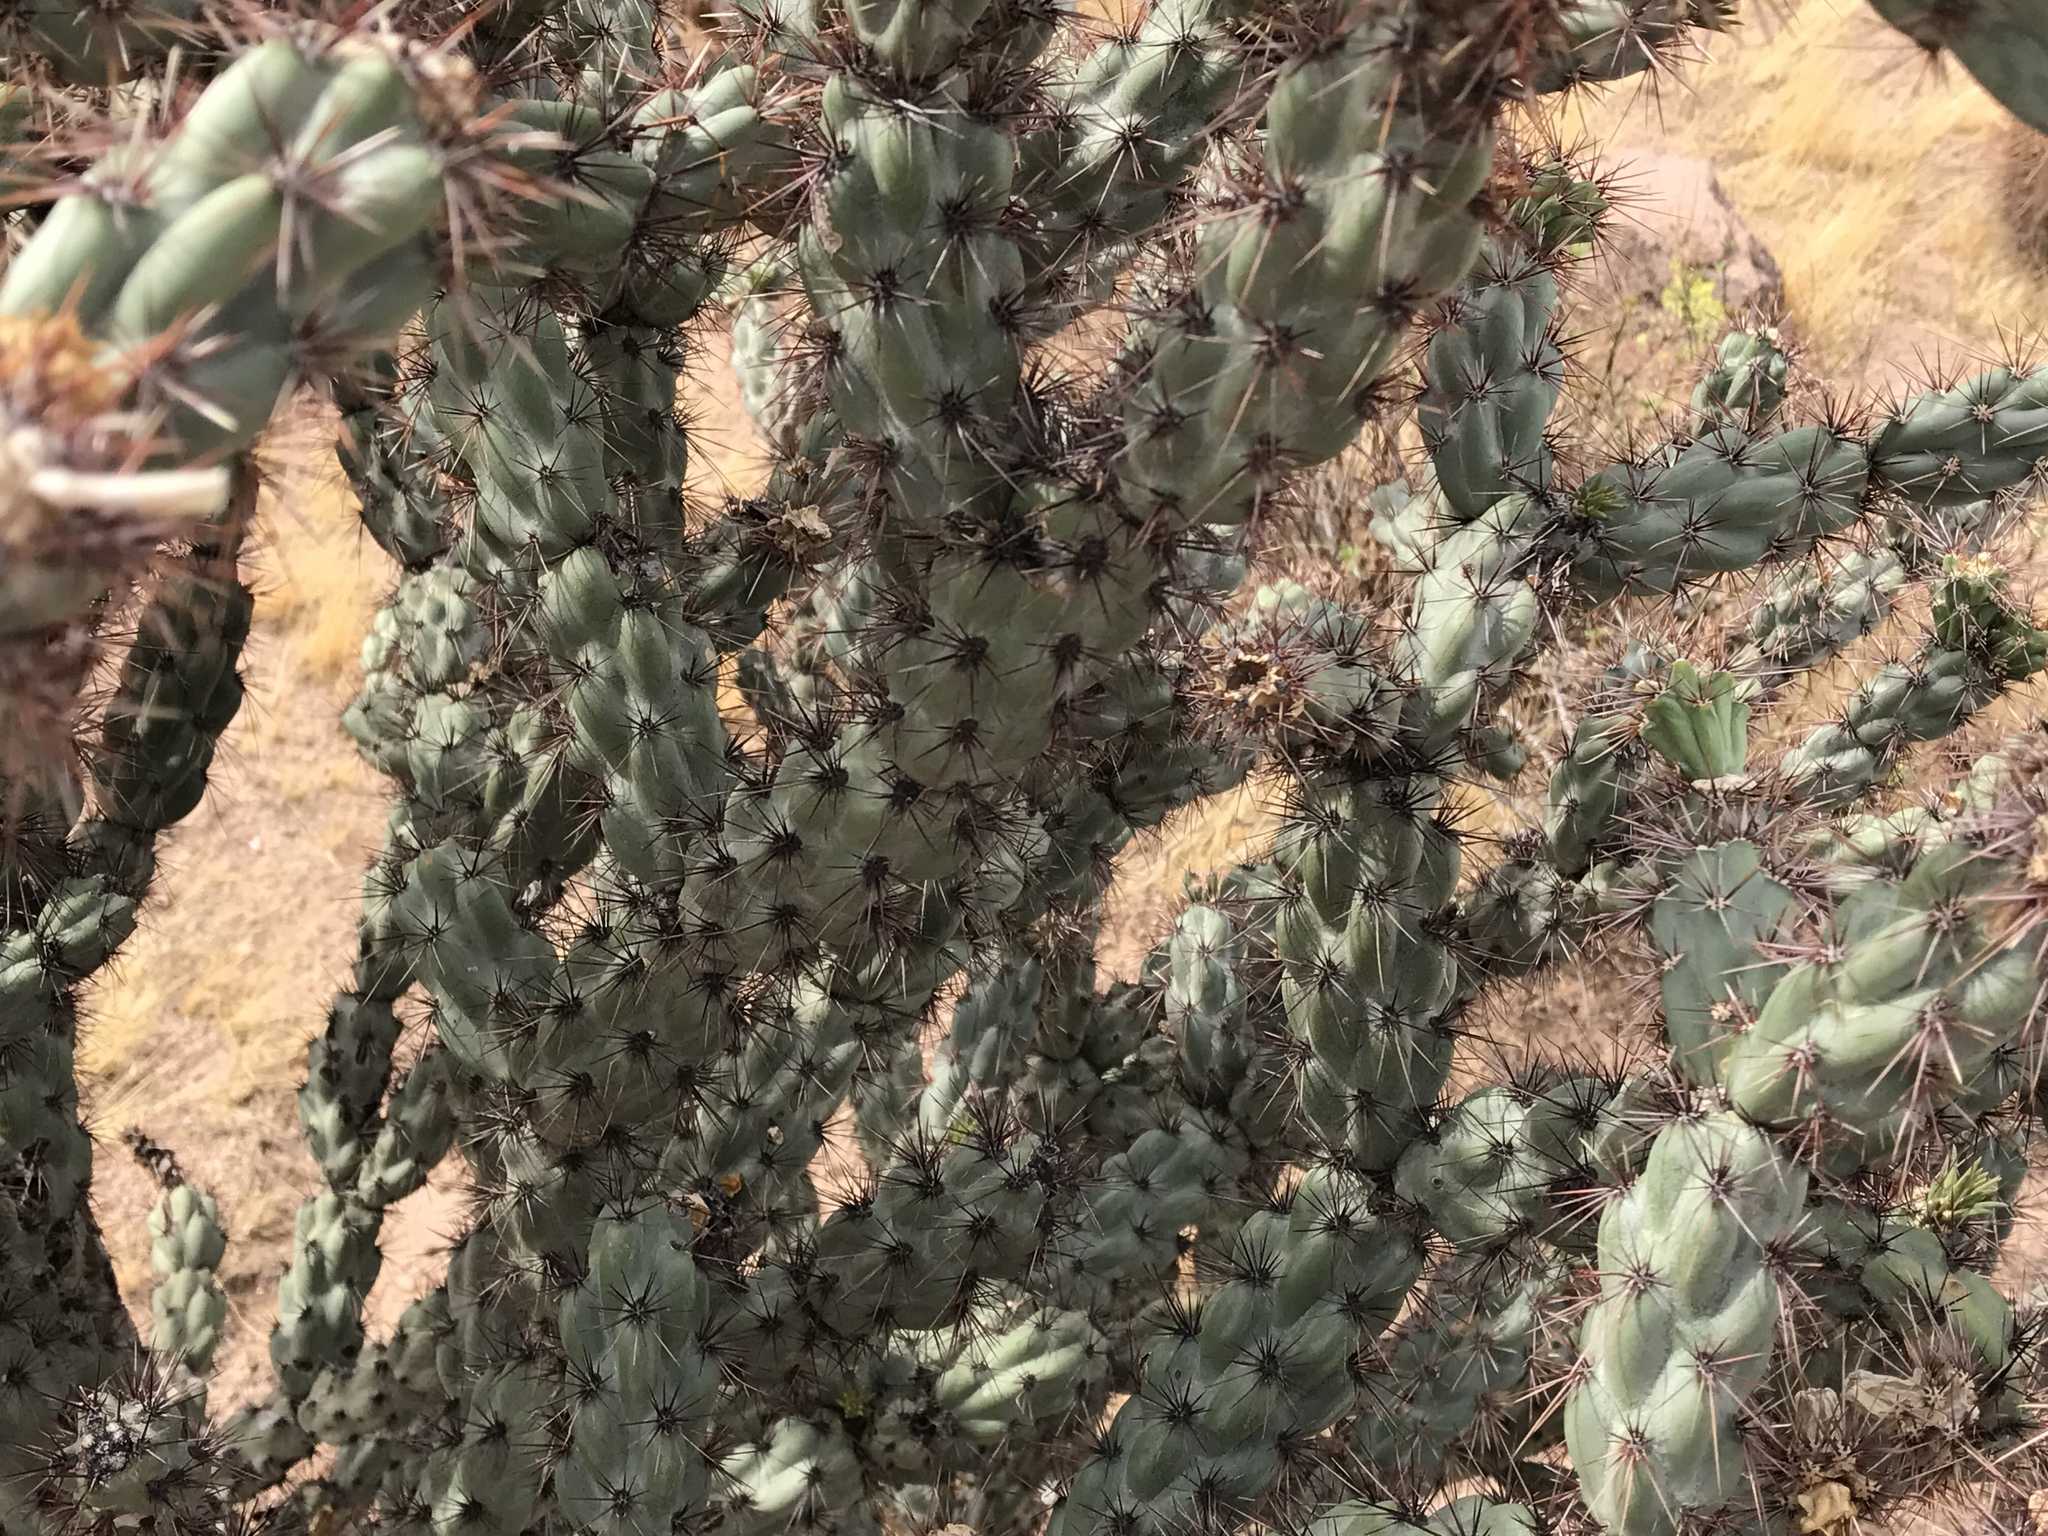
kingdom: Plantae
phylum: Tracheophyta
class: Magnoliopsida
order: Caryophyllales
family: Cactaceae
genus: Cylindropuntia
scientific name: Cylindropuntia acanthocarpa
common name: Buckhorn cholla
